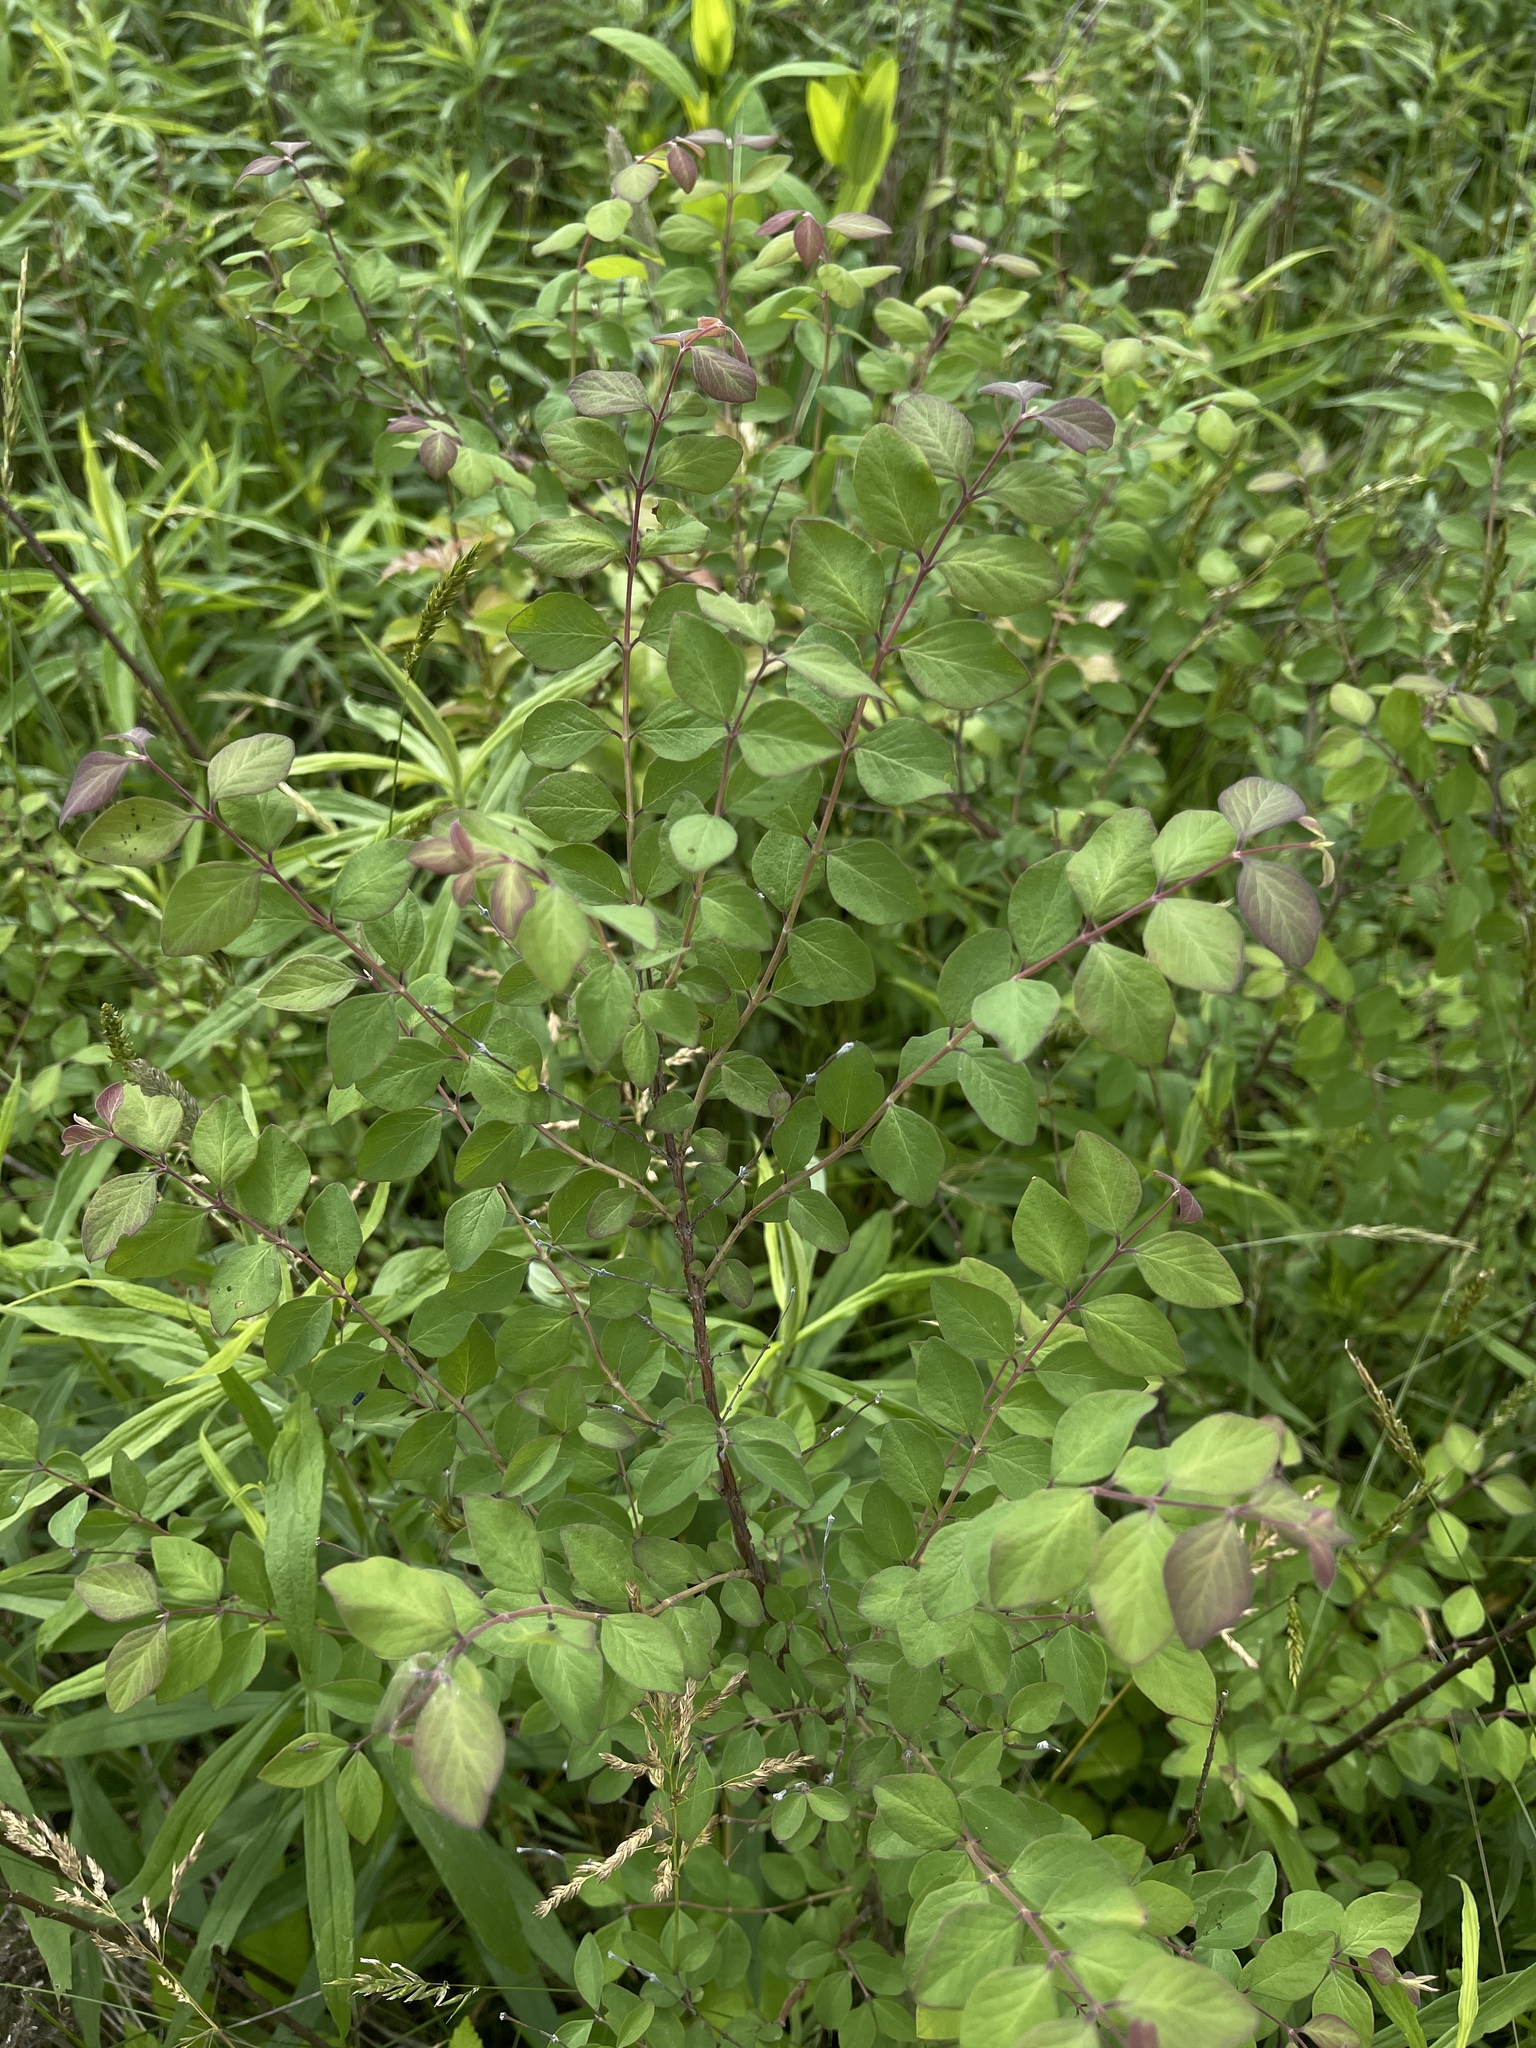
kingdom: Plantae
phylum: Tracheophyta
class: Magnoliopsida
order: Dipsacales
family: Caprifoliaceae
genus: Symphoricarpos
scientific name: Symphoricarpos orbiculatus
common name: Coralberry
